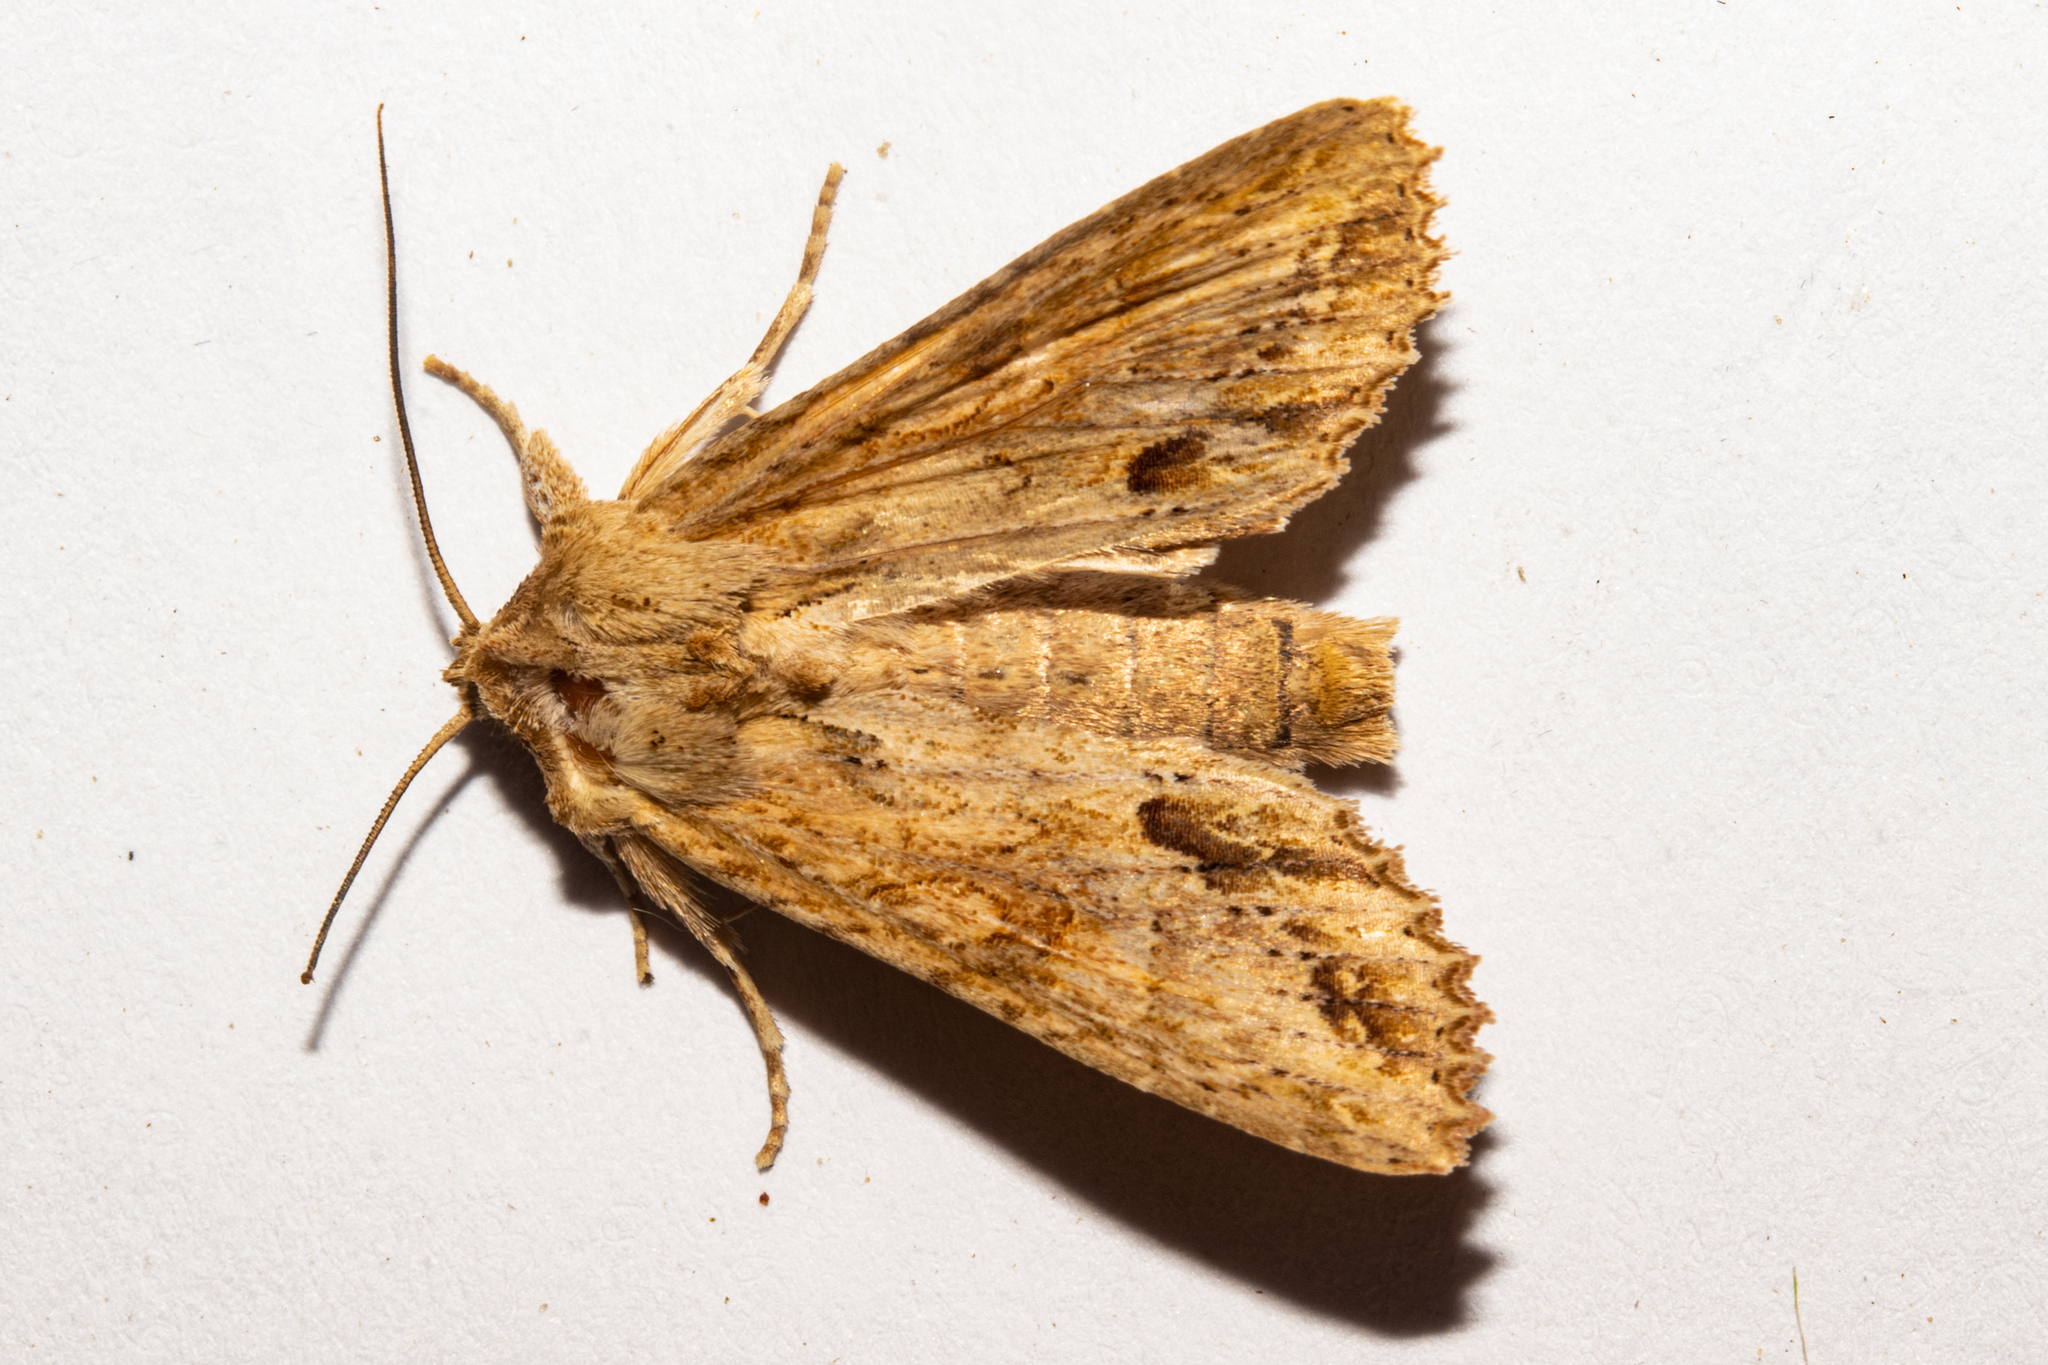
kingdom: Animalia
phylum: Arthropoda
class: Insecta
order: Lepidoptera
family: Noctuidae
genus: Ichneutica
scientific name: Ichneutica mollis
